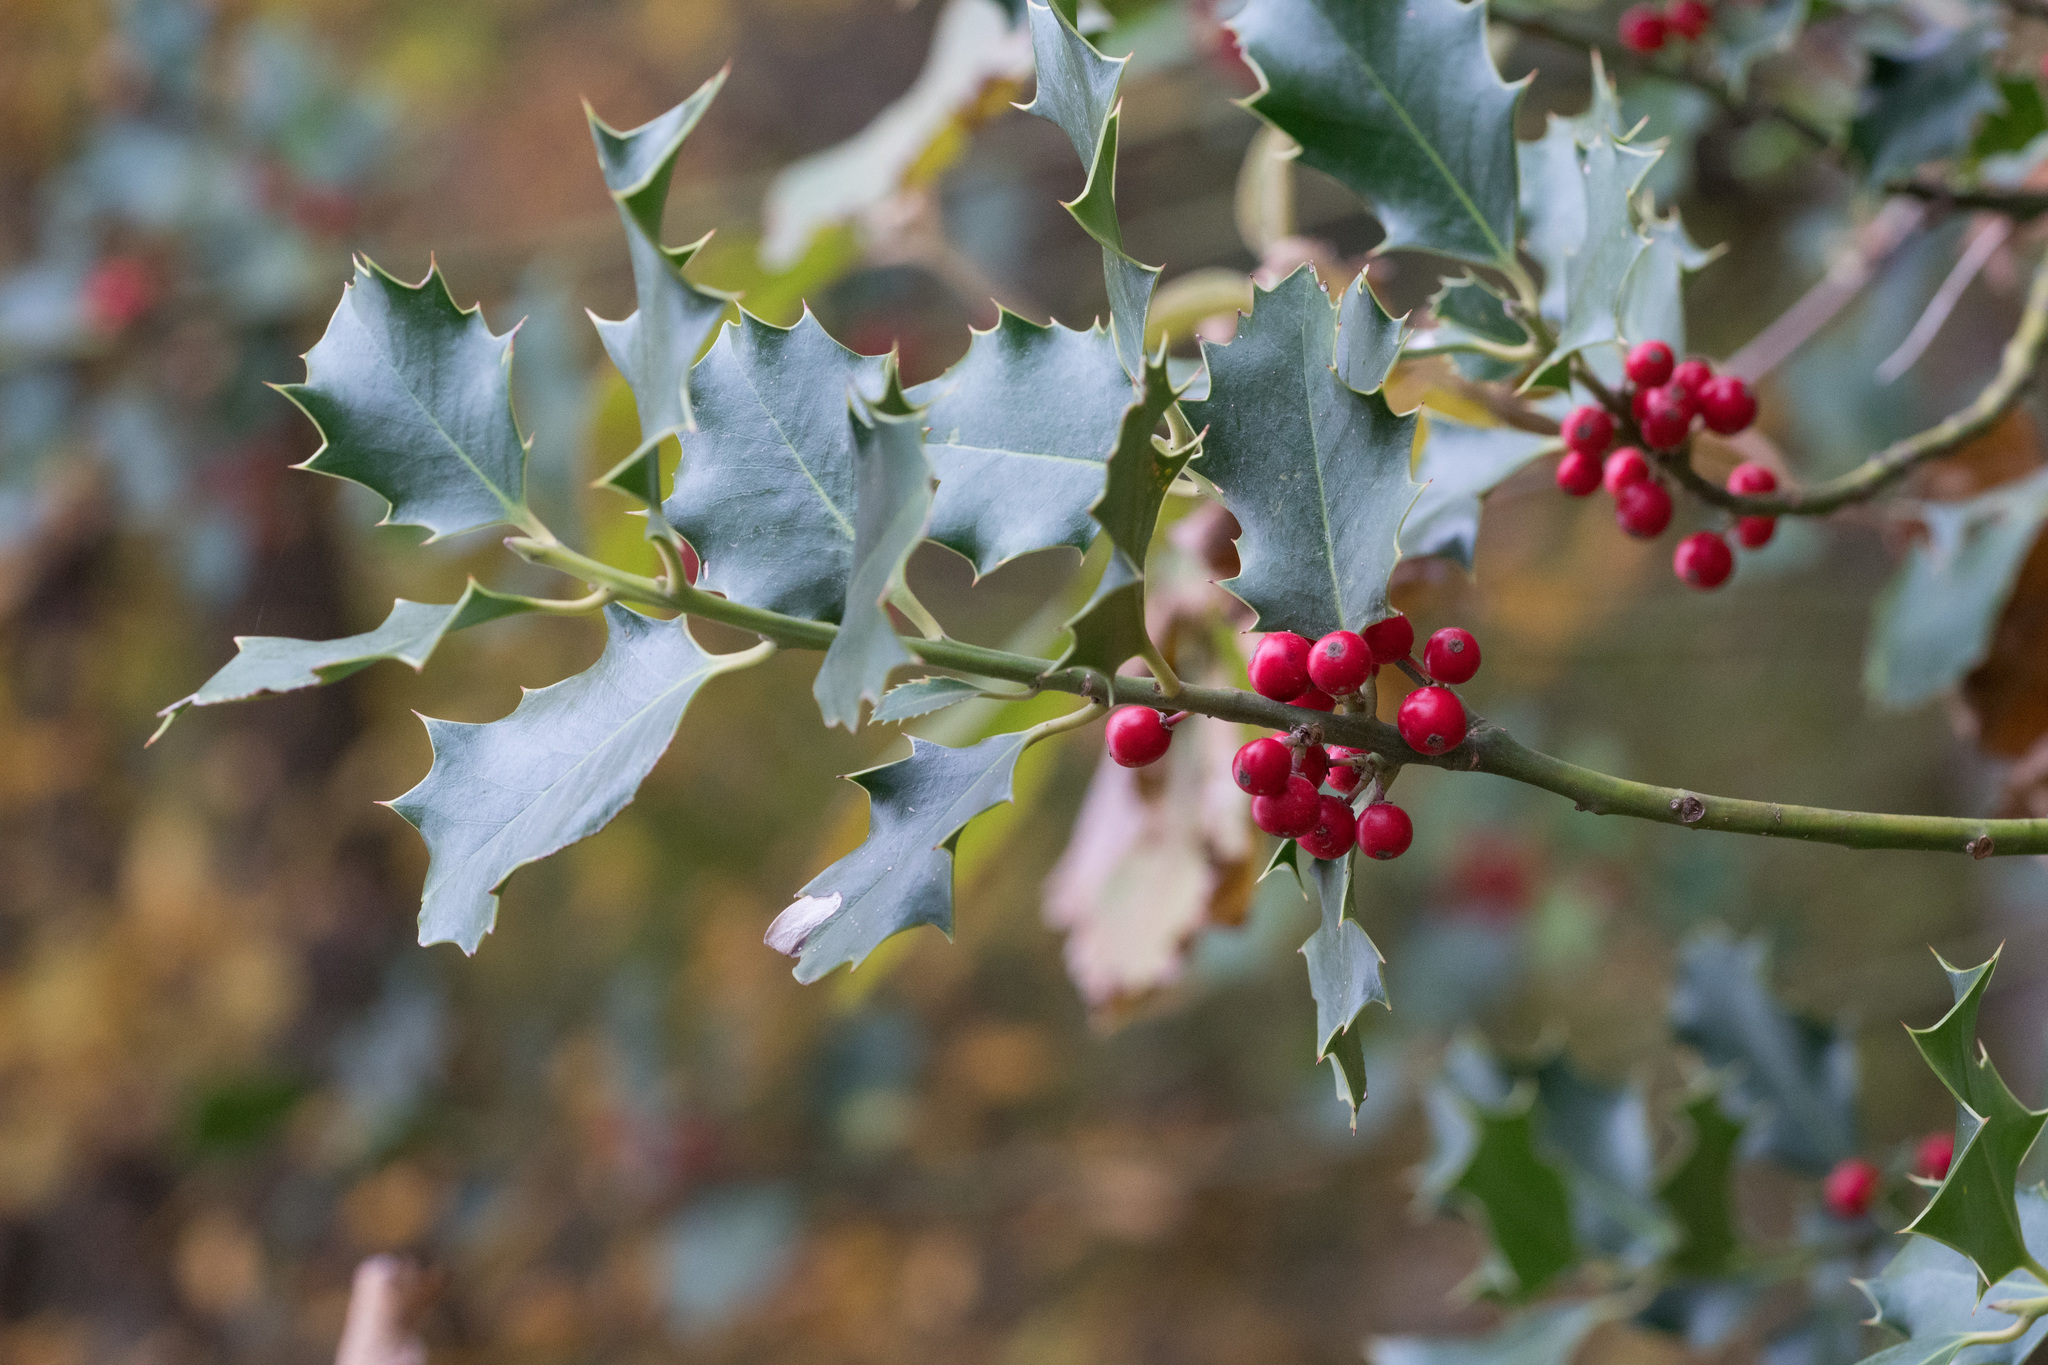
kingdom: Plantae
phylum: Tracheophyta
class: Magnoliopsida
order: Aquifoliales
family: Aquifoliaceae
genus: Ilex
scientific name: Ilex aquifolium
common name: English holly
